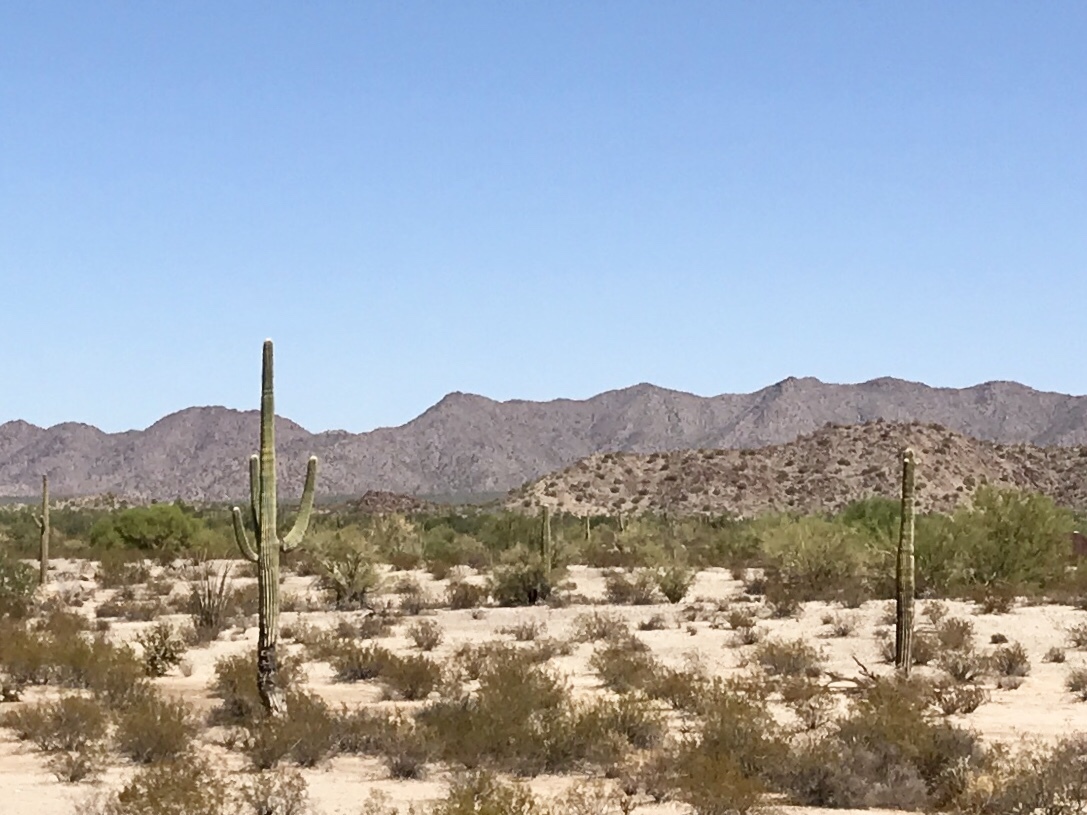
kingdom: Plantae
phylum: Tracheophyta
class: Magnoliopsida
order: Caryophyllales
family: Cactaceae
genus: Carnegiea
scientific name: Carnegiea gigantea
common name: Saguaro
